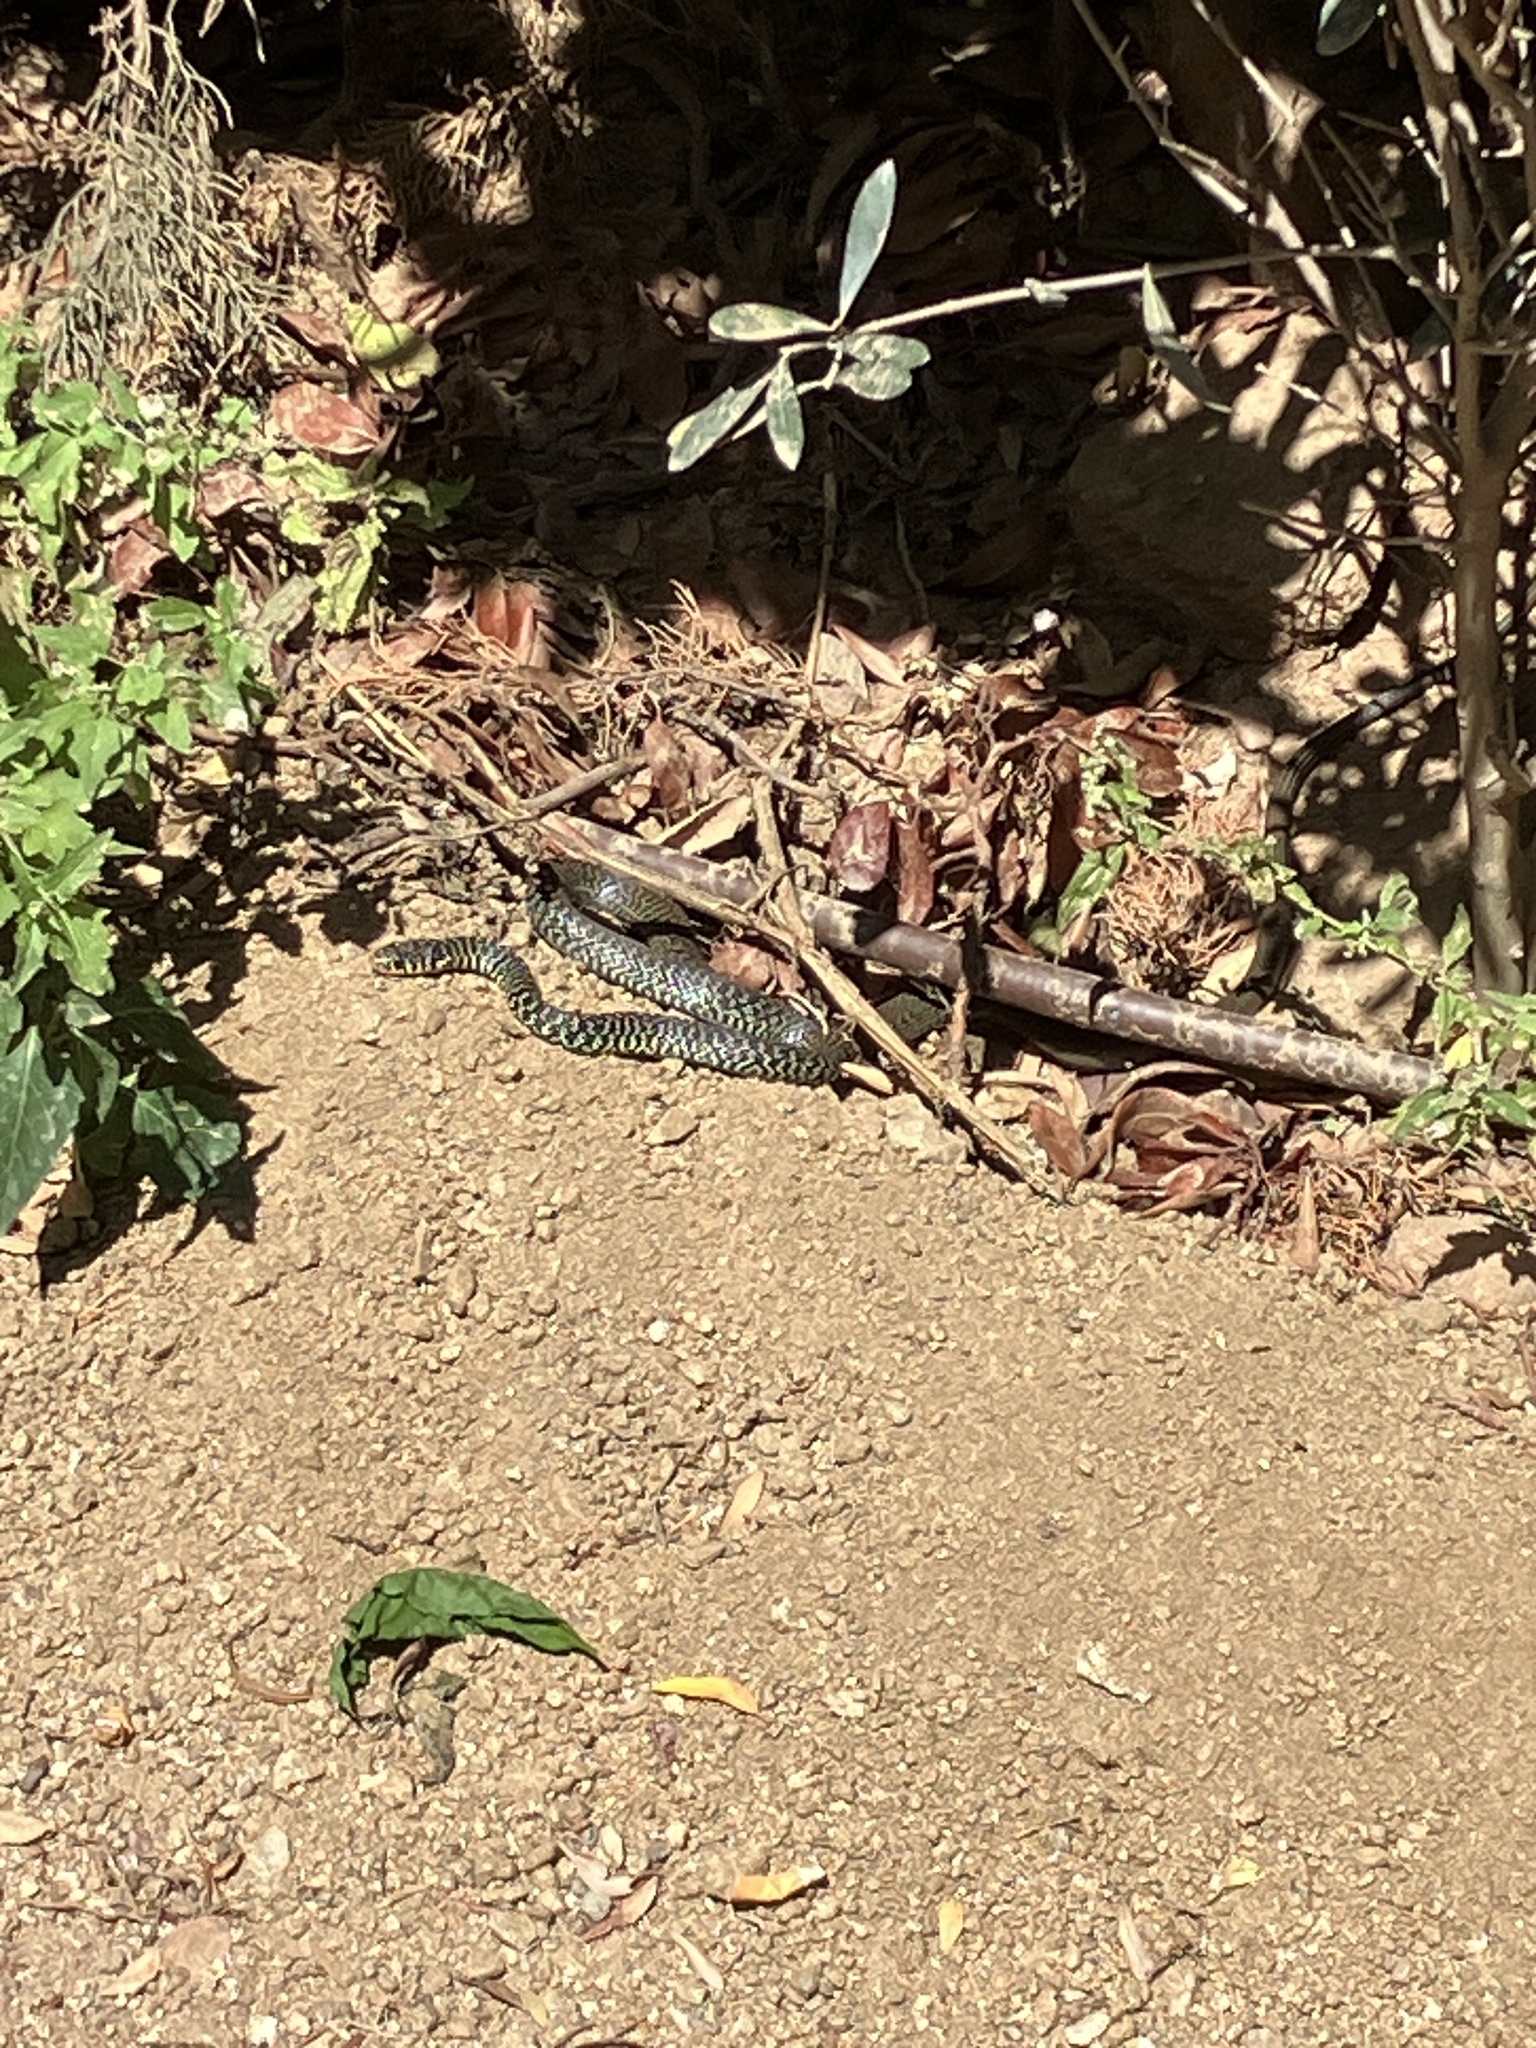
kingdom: Animalia
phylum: Chordata
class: Squamata
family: Colubridae
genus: Hierophis
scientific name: Hierophis viridiflavus
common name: Green whip snake
